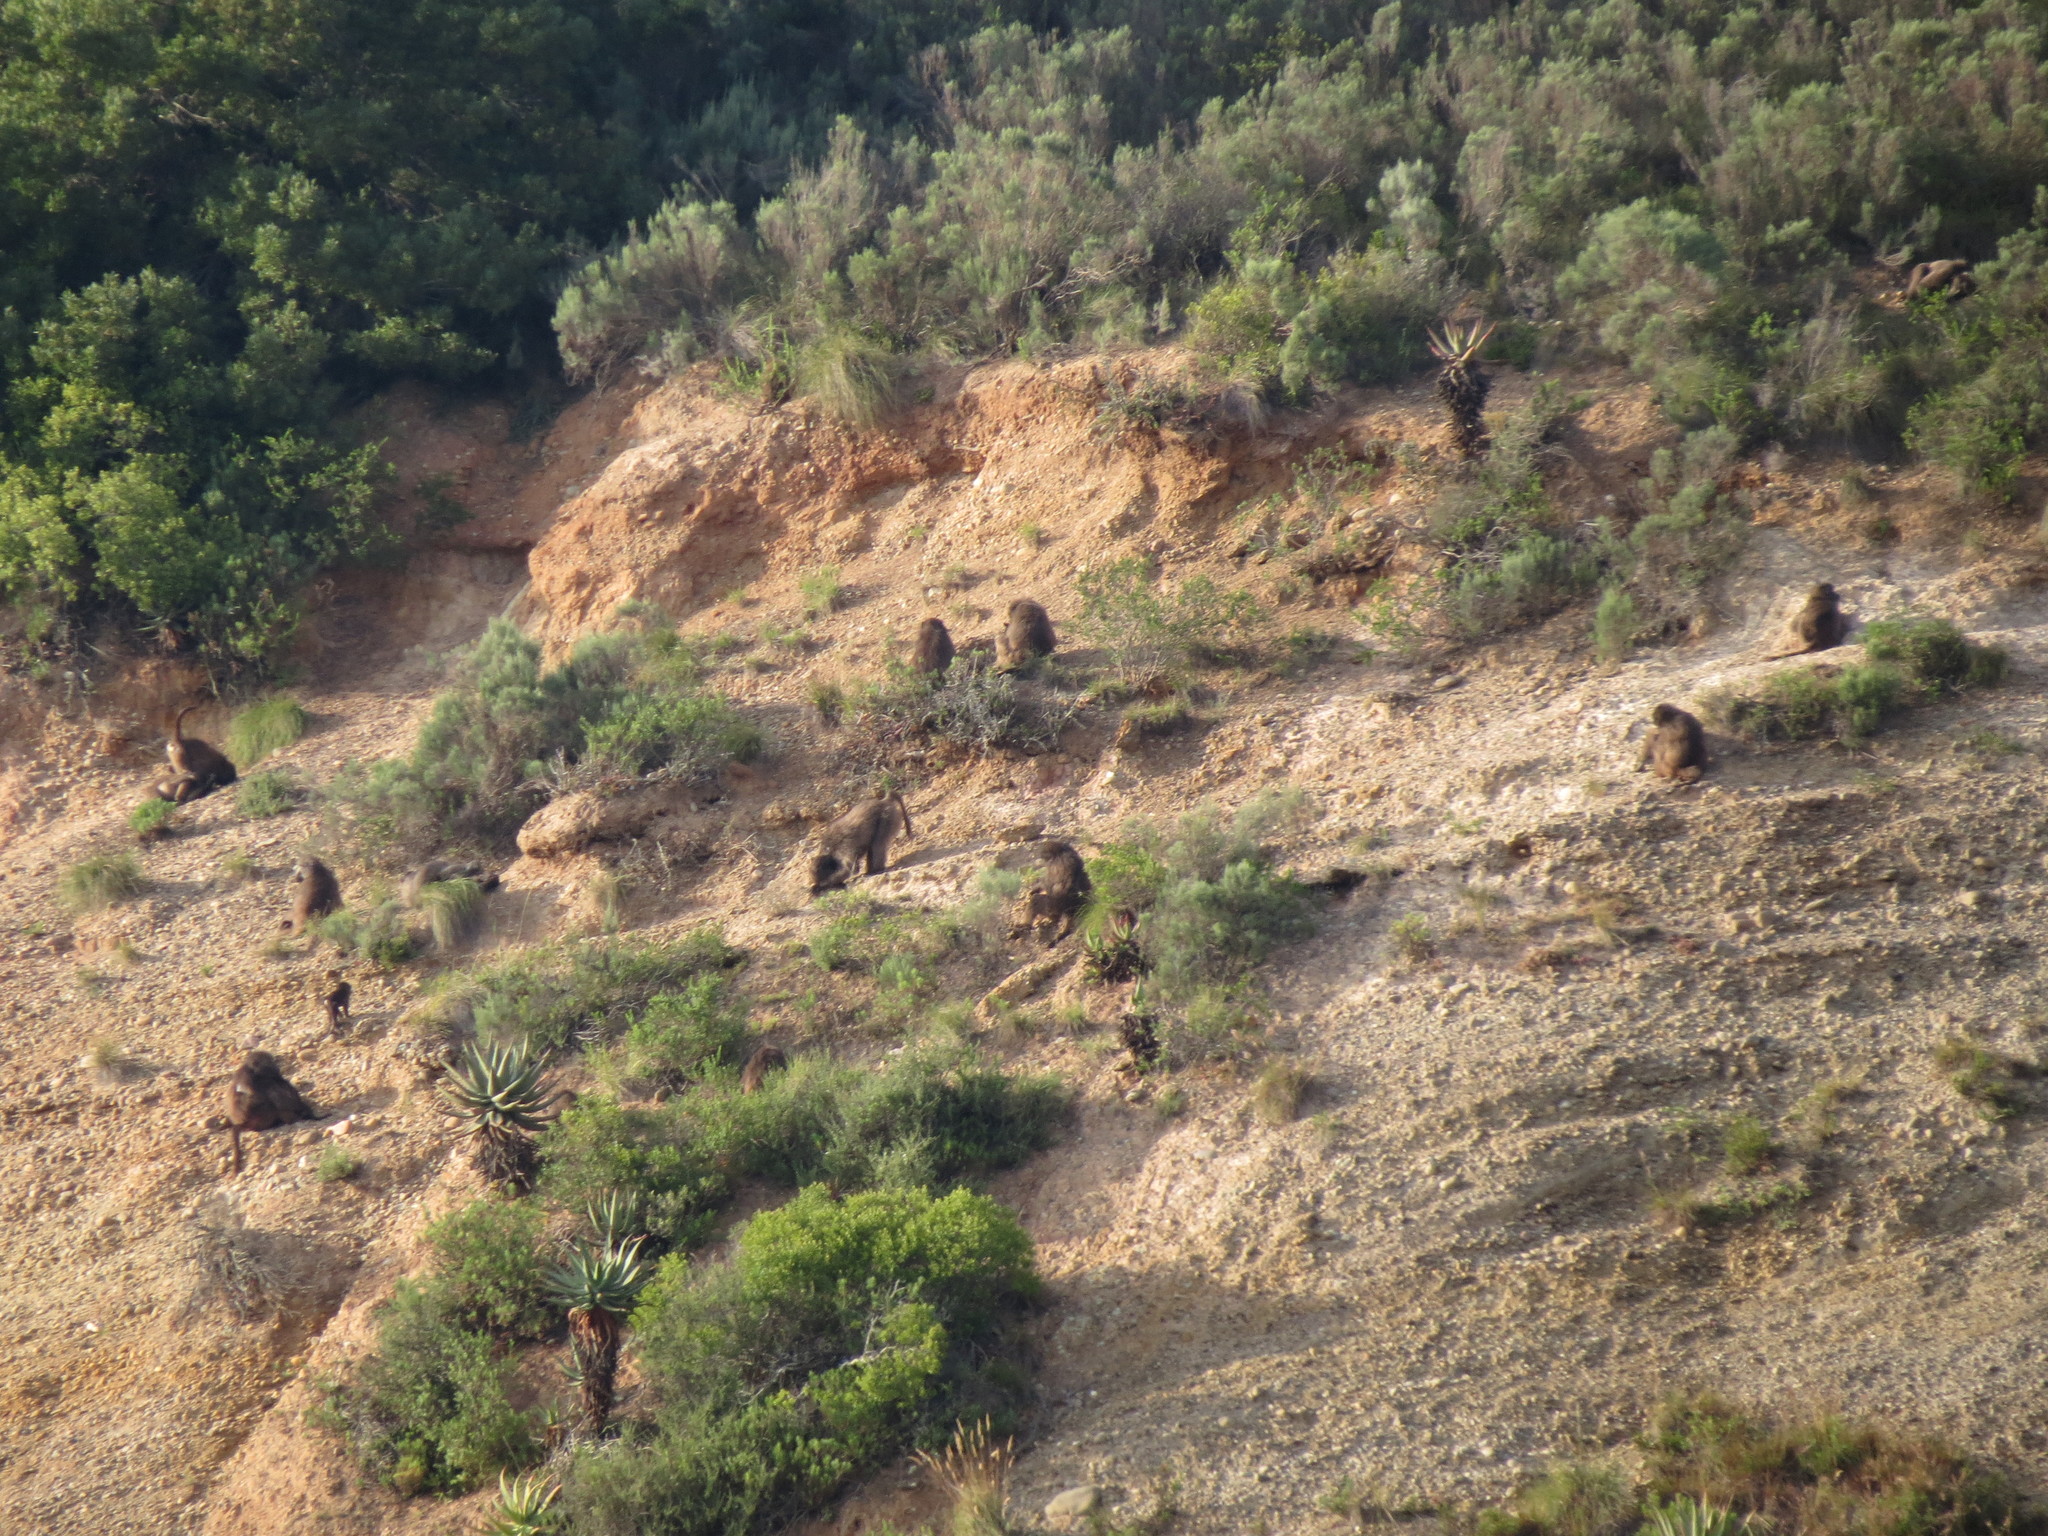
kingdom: Animalia
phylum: Chordata
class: Mammalia
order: Primates
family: Cercopithecidae
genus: Papio
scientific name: Papio ursinus
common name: Chacma baboon
